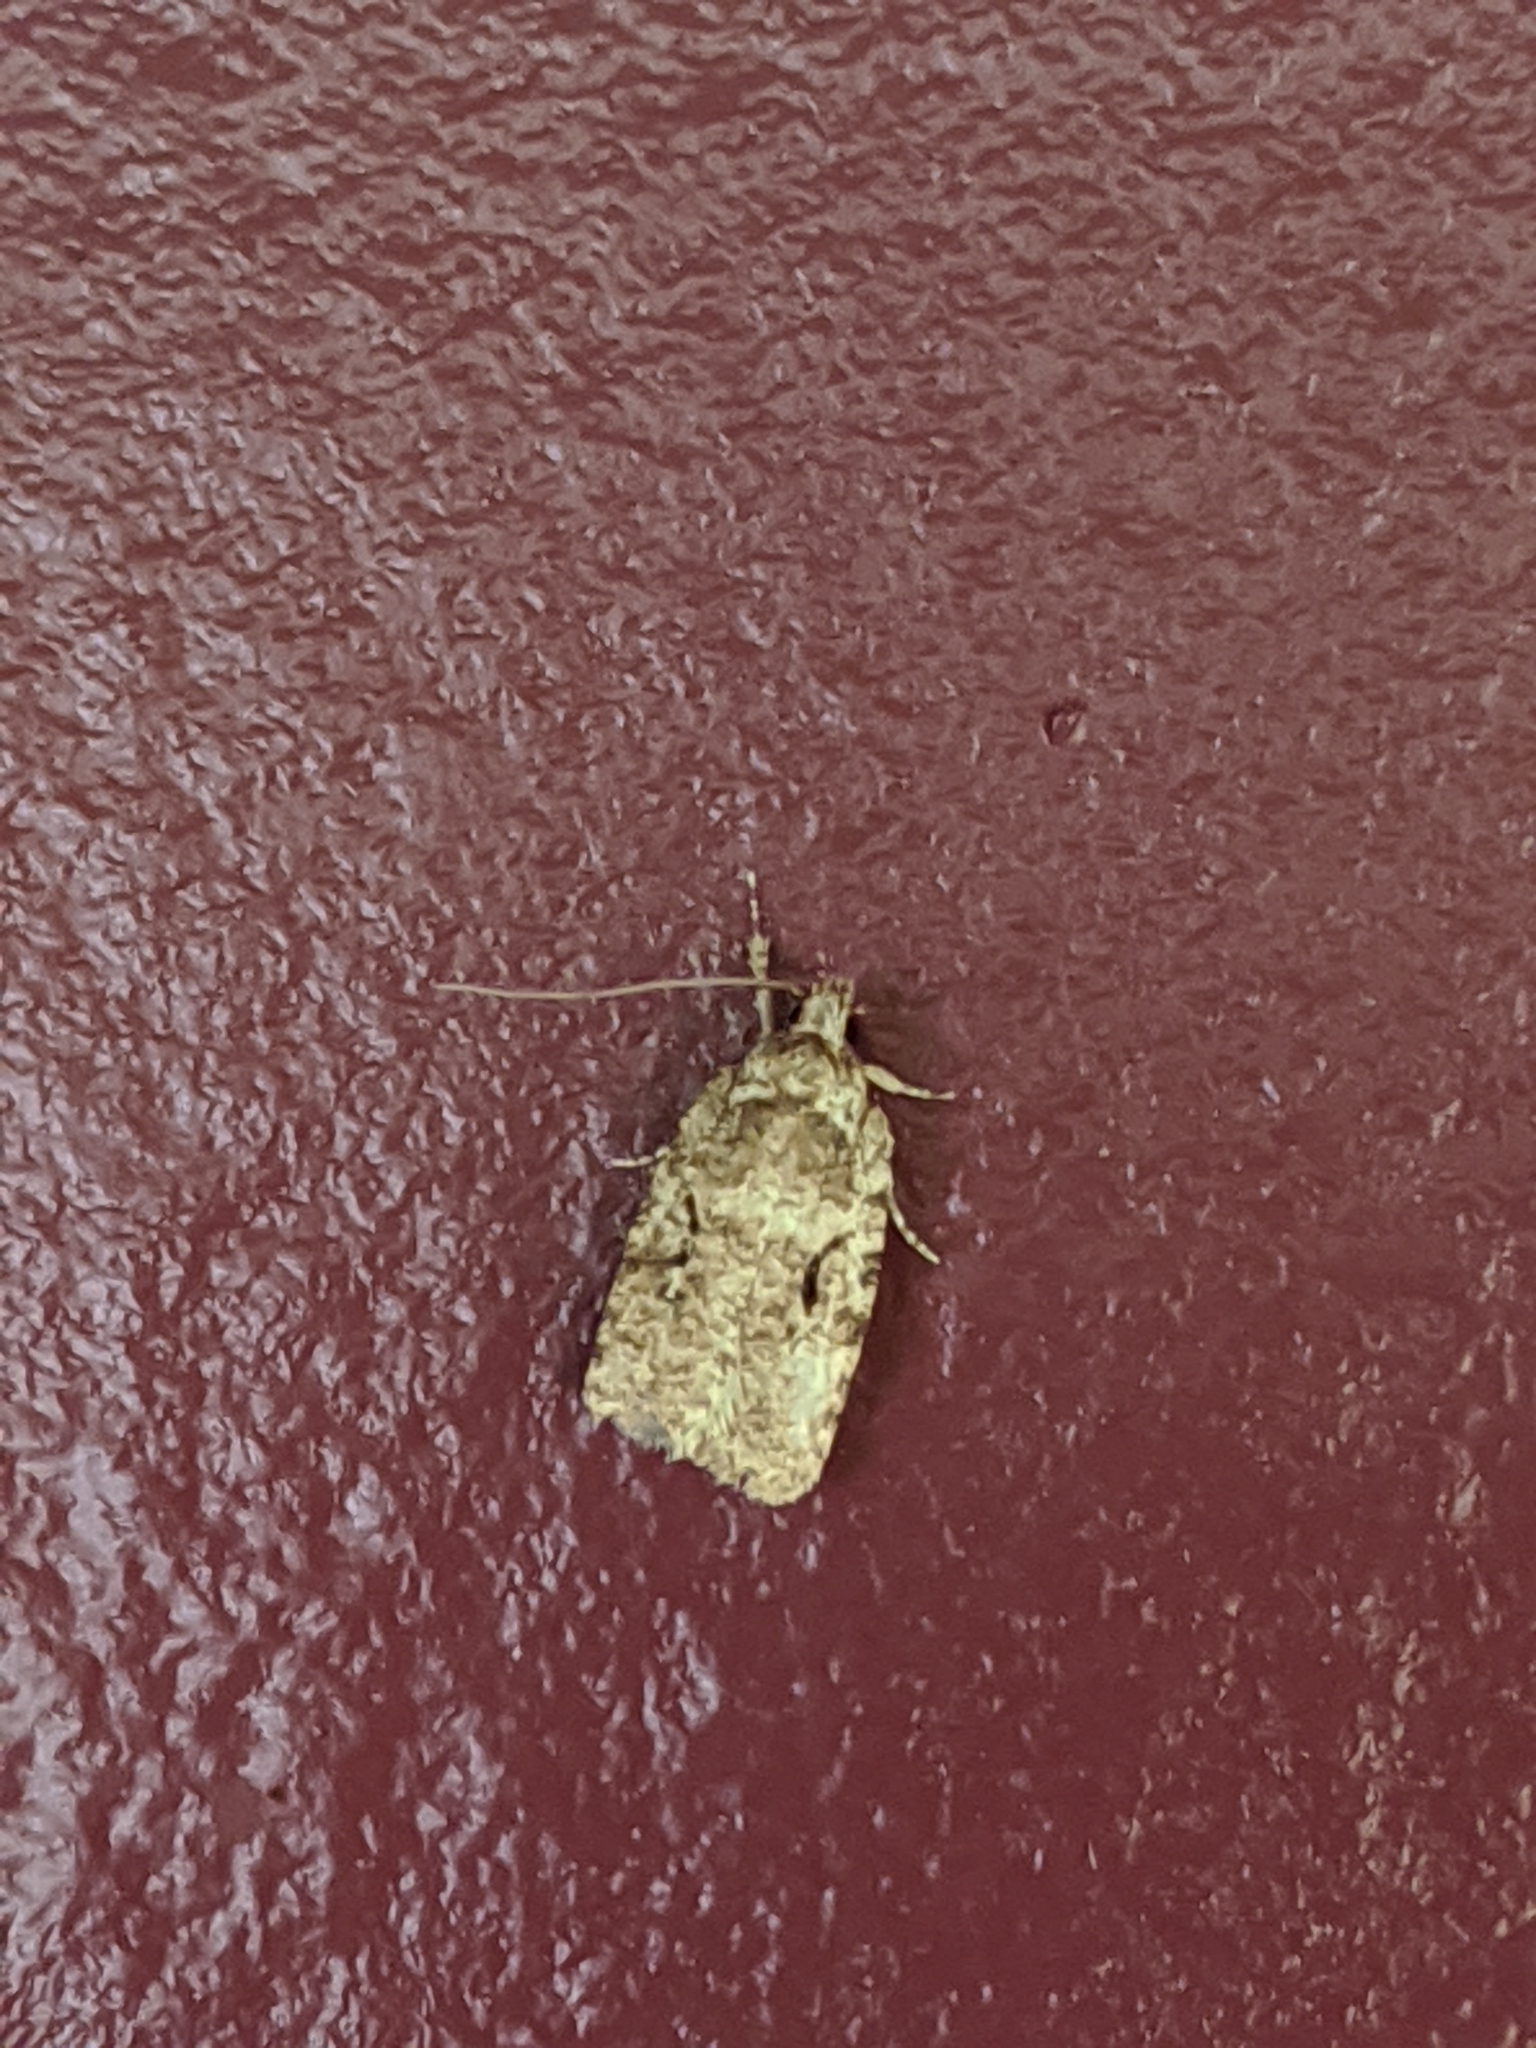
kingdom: Animalia
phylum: Arthropoda
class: Insecta
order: Lepidoptera
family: Depressariidae
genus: Agonopterix
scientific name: Agonopterix curvilineella
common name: Curved-line agonopterix moth
